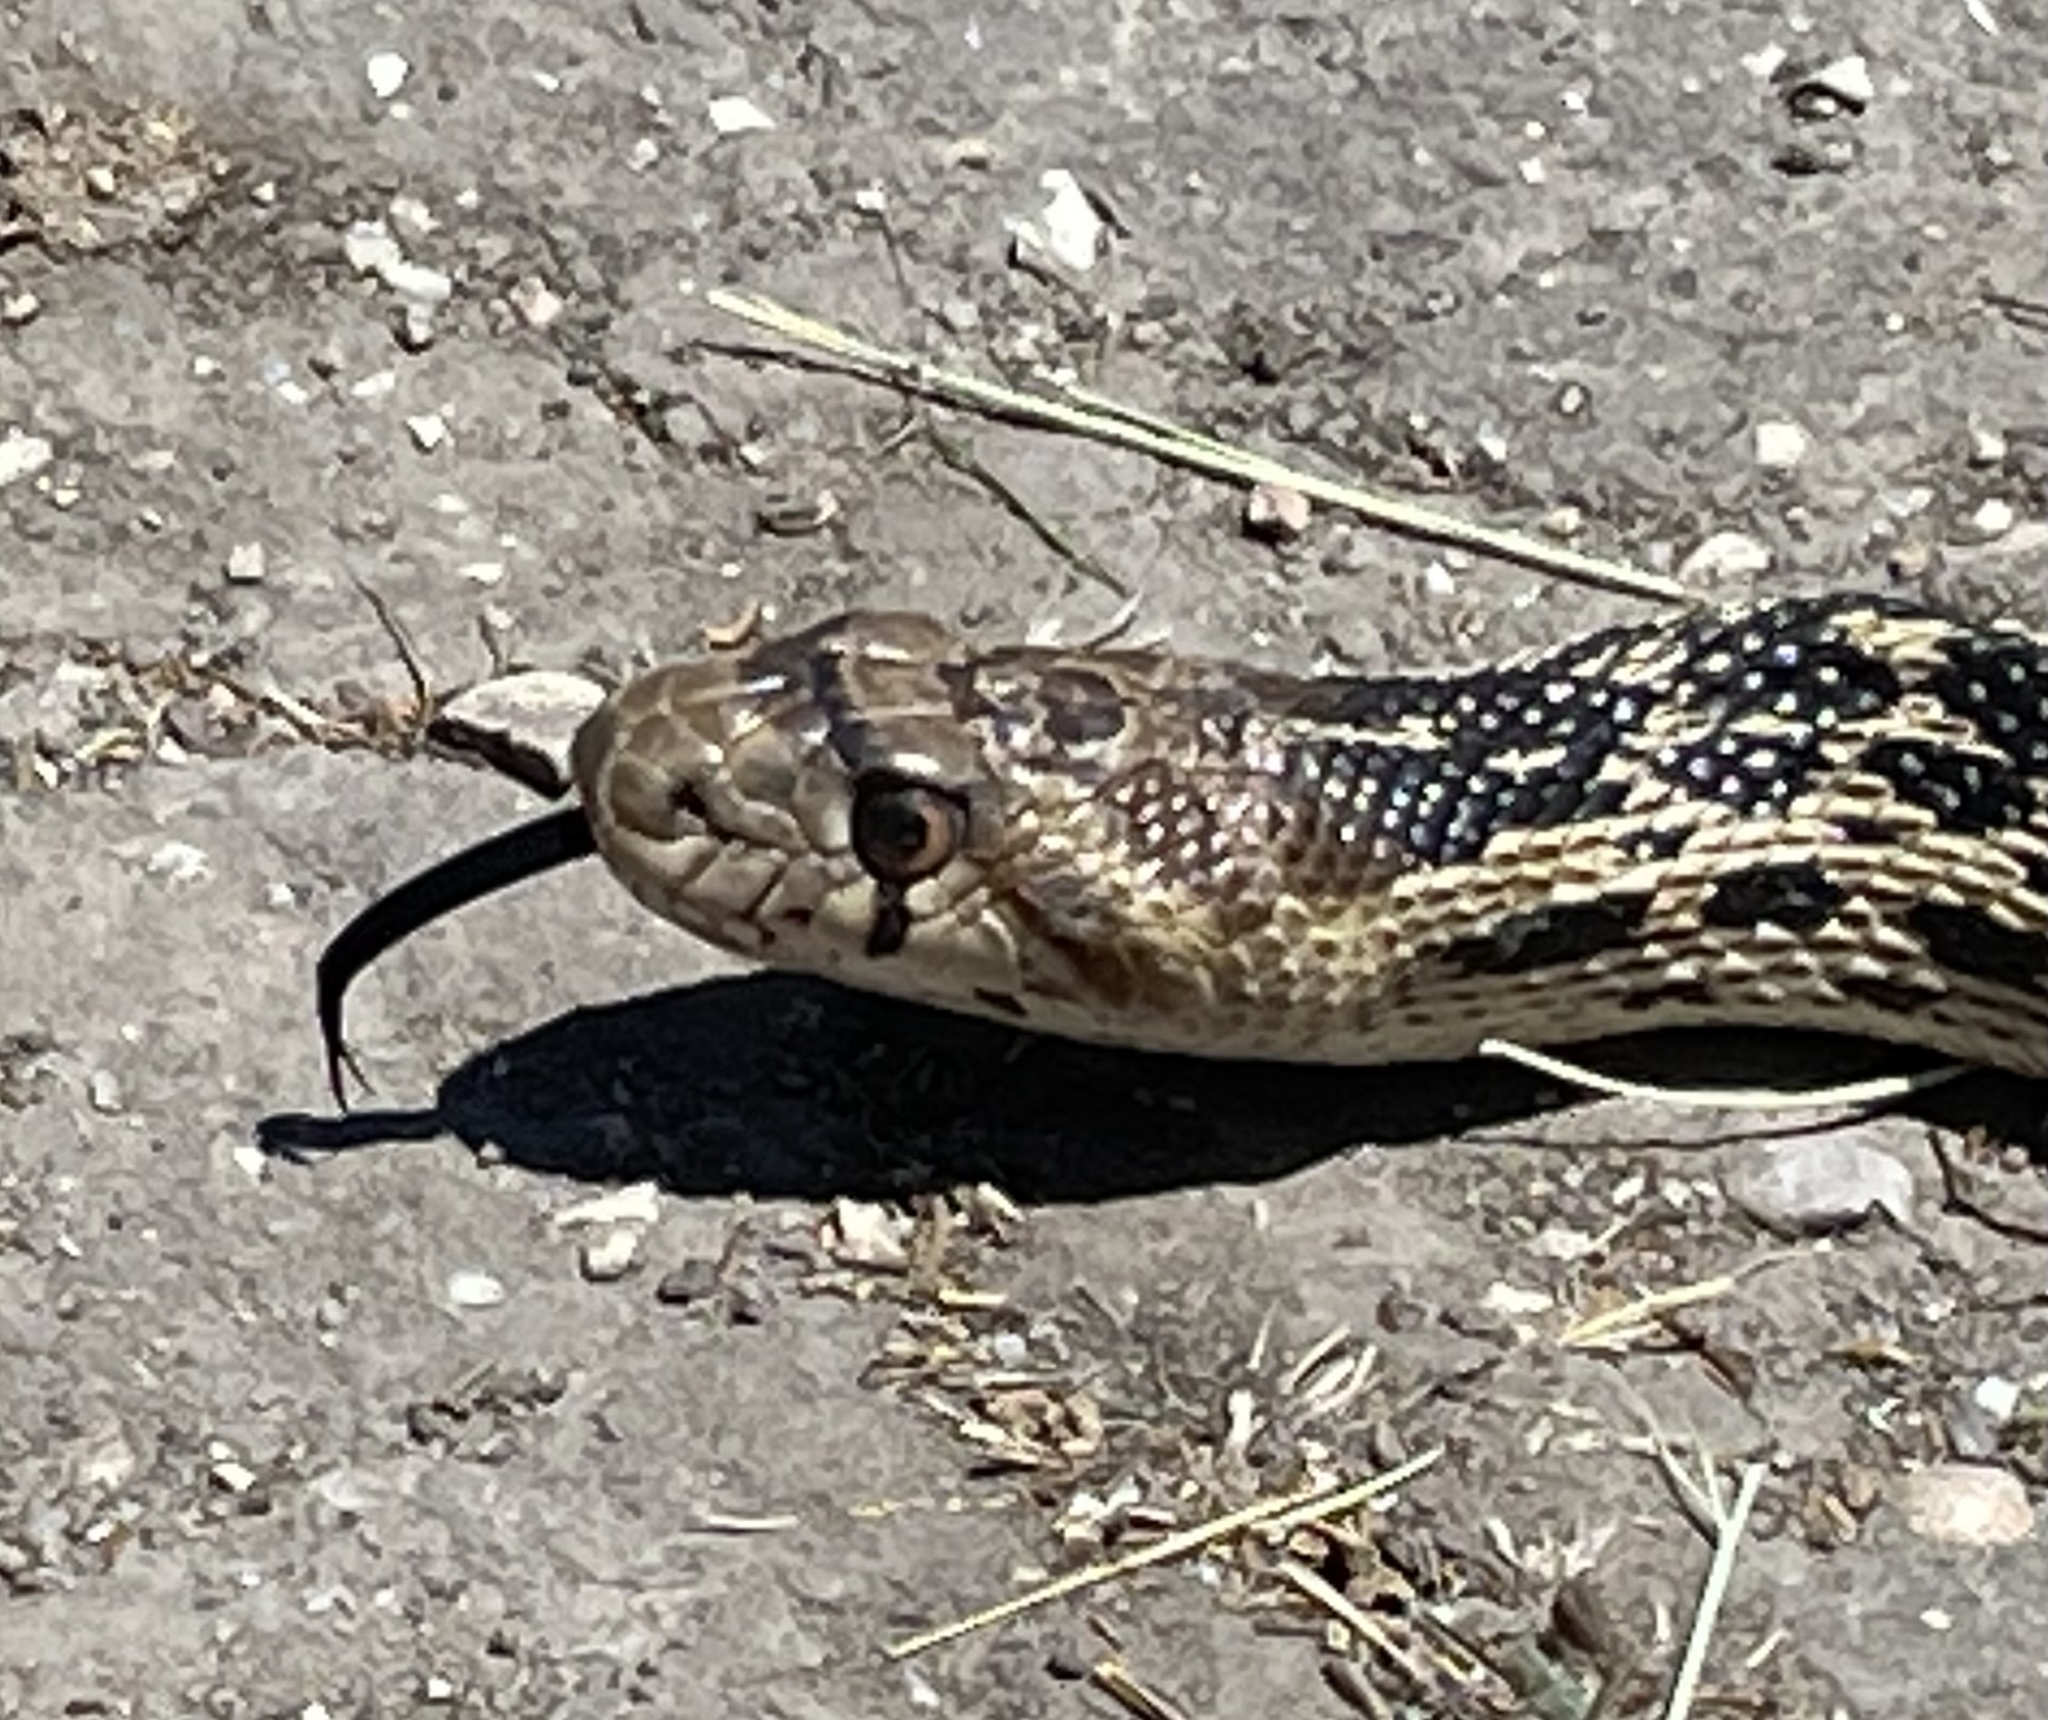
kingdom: Animalia
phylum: Chordata
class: Squamata
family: Colubridae
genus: Pituophis
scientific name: Pituophis catenifer
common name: Gopher snake
